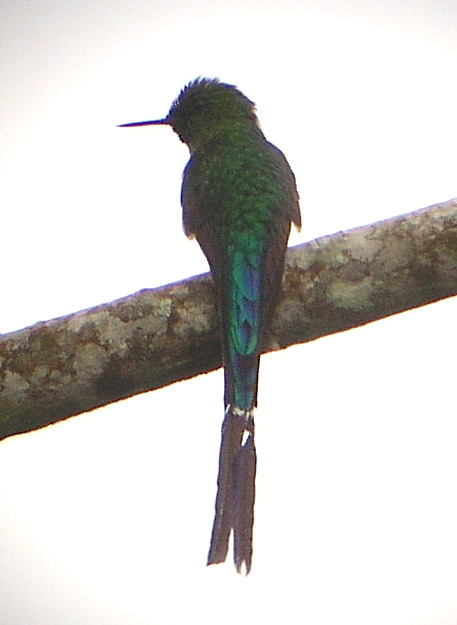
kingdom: Animalia
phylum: Chordata
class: Aves
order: Apodiformes
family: Trochilidae
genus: Aglaiocercus
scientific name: Aglaiocercus kingii
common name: Long-tailed sylph
